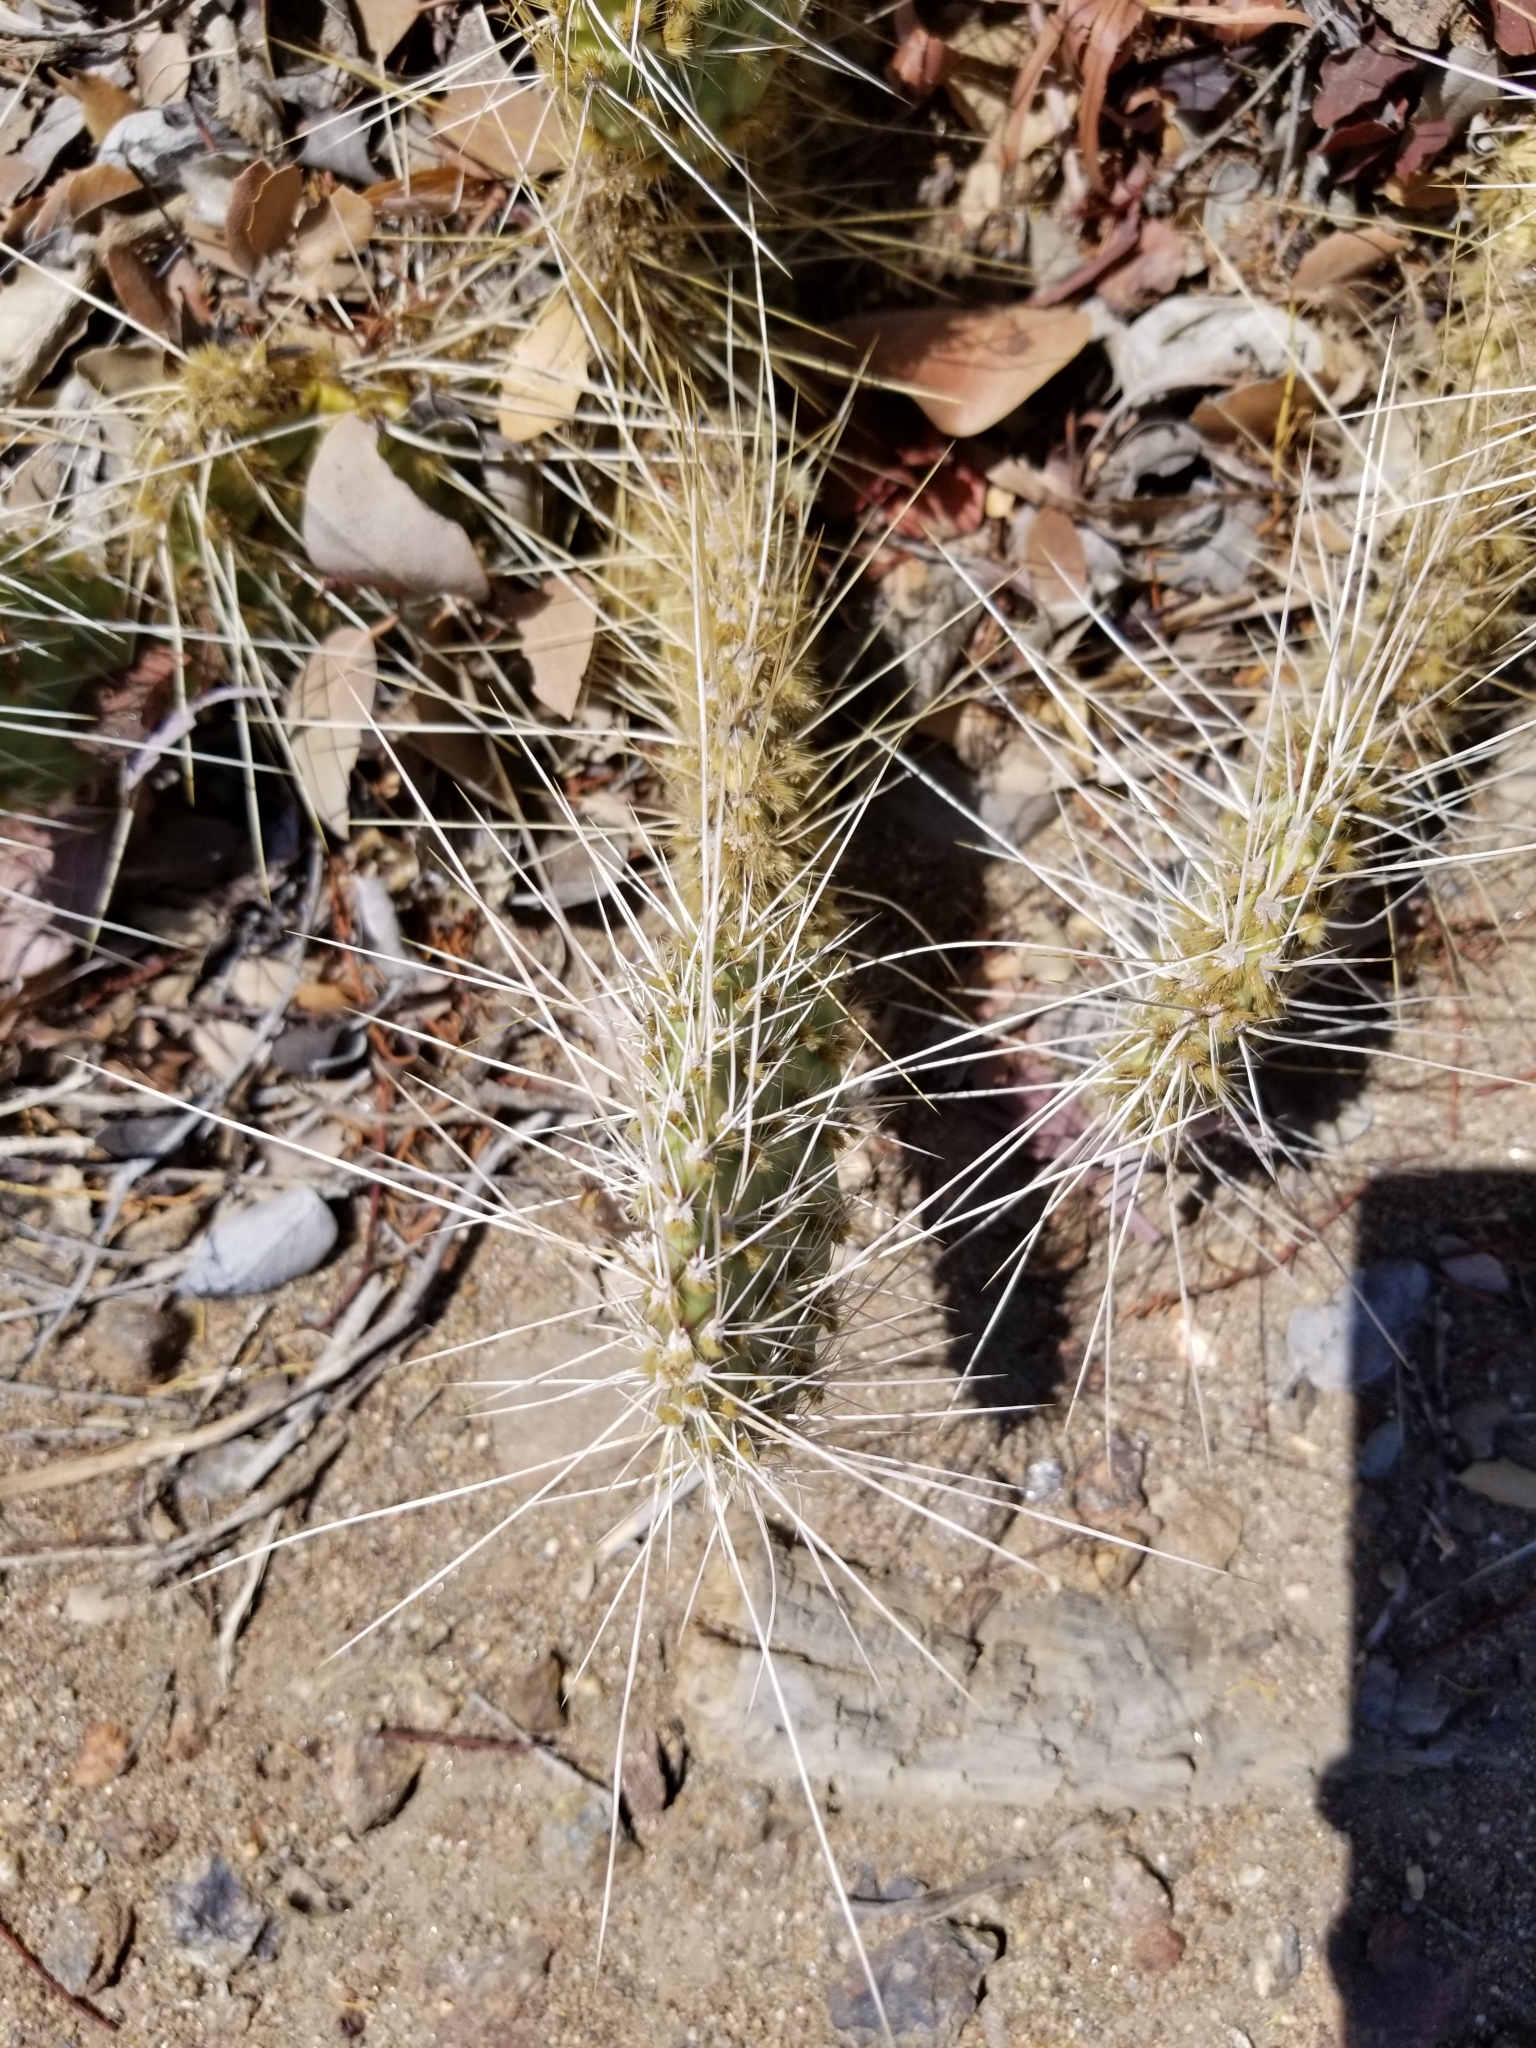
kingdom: Plantae
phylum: Tracheophyta
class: Magnoliopsida
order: Caryophyllales
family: Cactaceae
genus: Opuntia
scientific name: Opuntia polyacantha
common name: Plains prickly-pear
